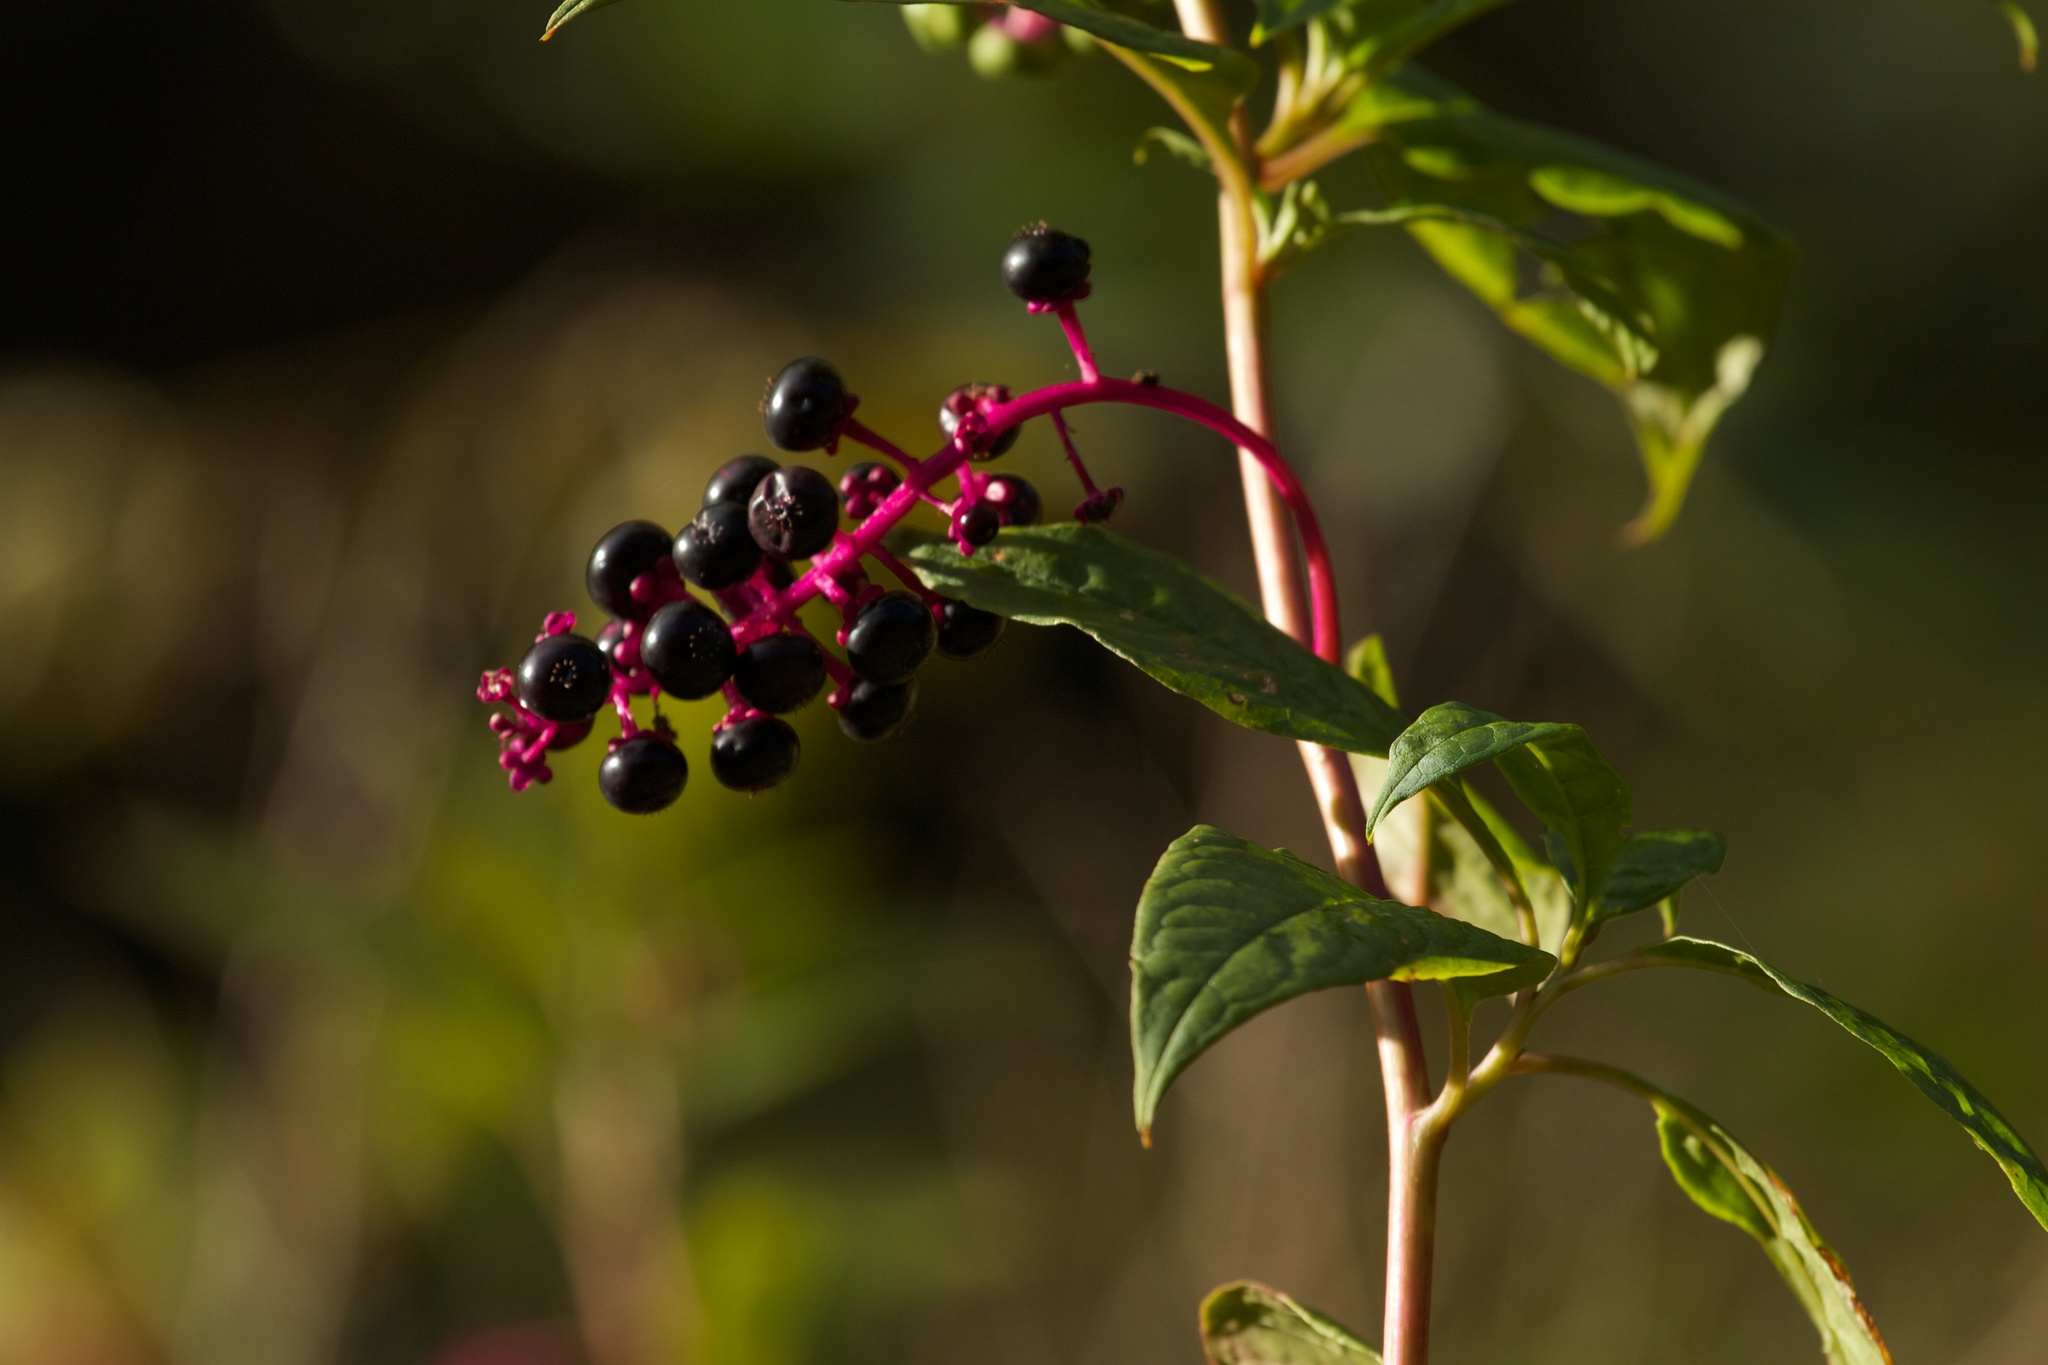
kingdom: Plantae
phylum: Tracheophyta
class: Magnoliopsida
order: Caryophyllales
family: Phytolaccaceae
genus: Phytolacca
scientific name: Phytolacca americana
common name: American pokeweed
